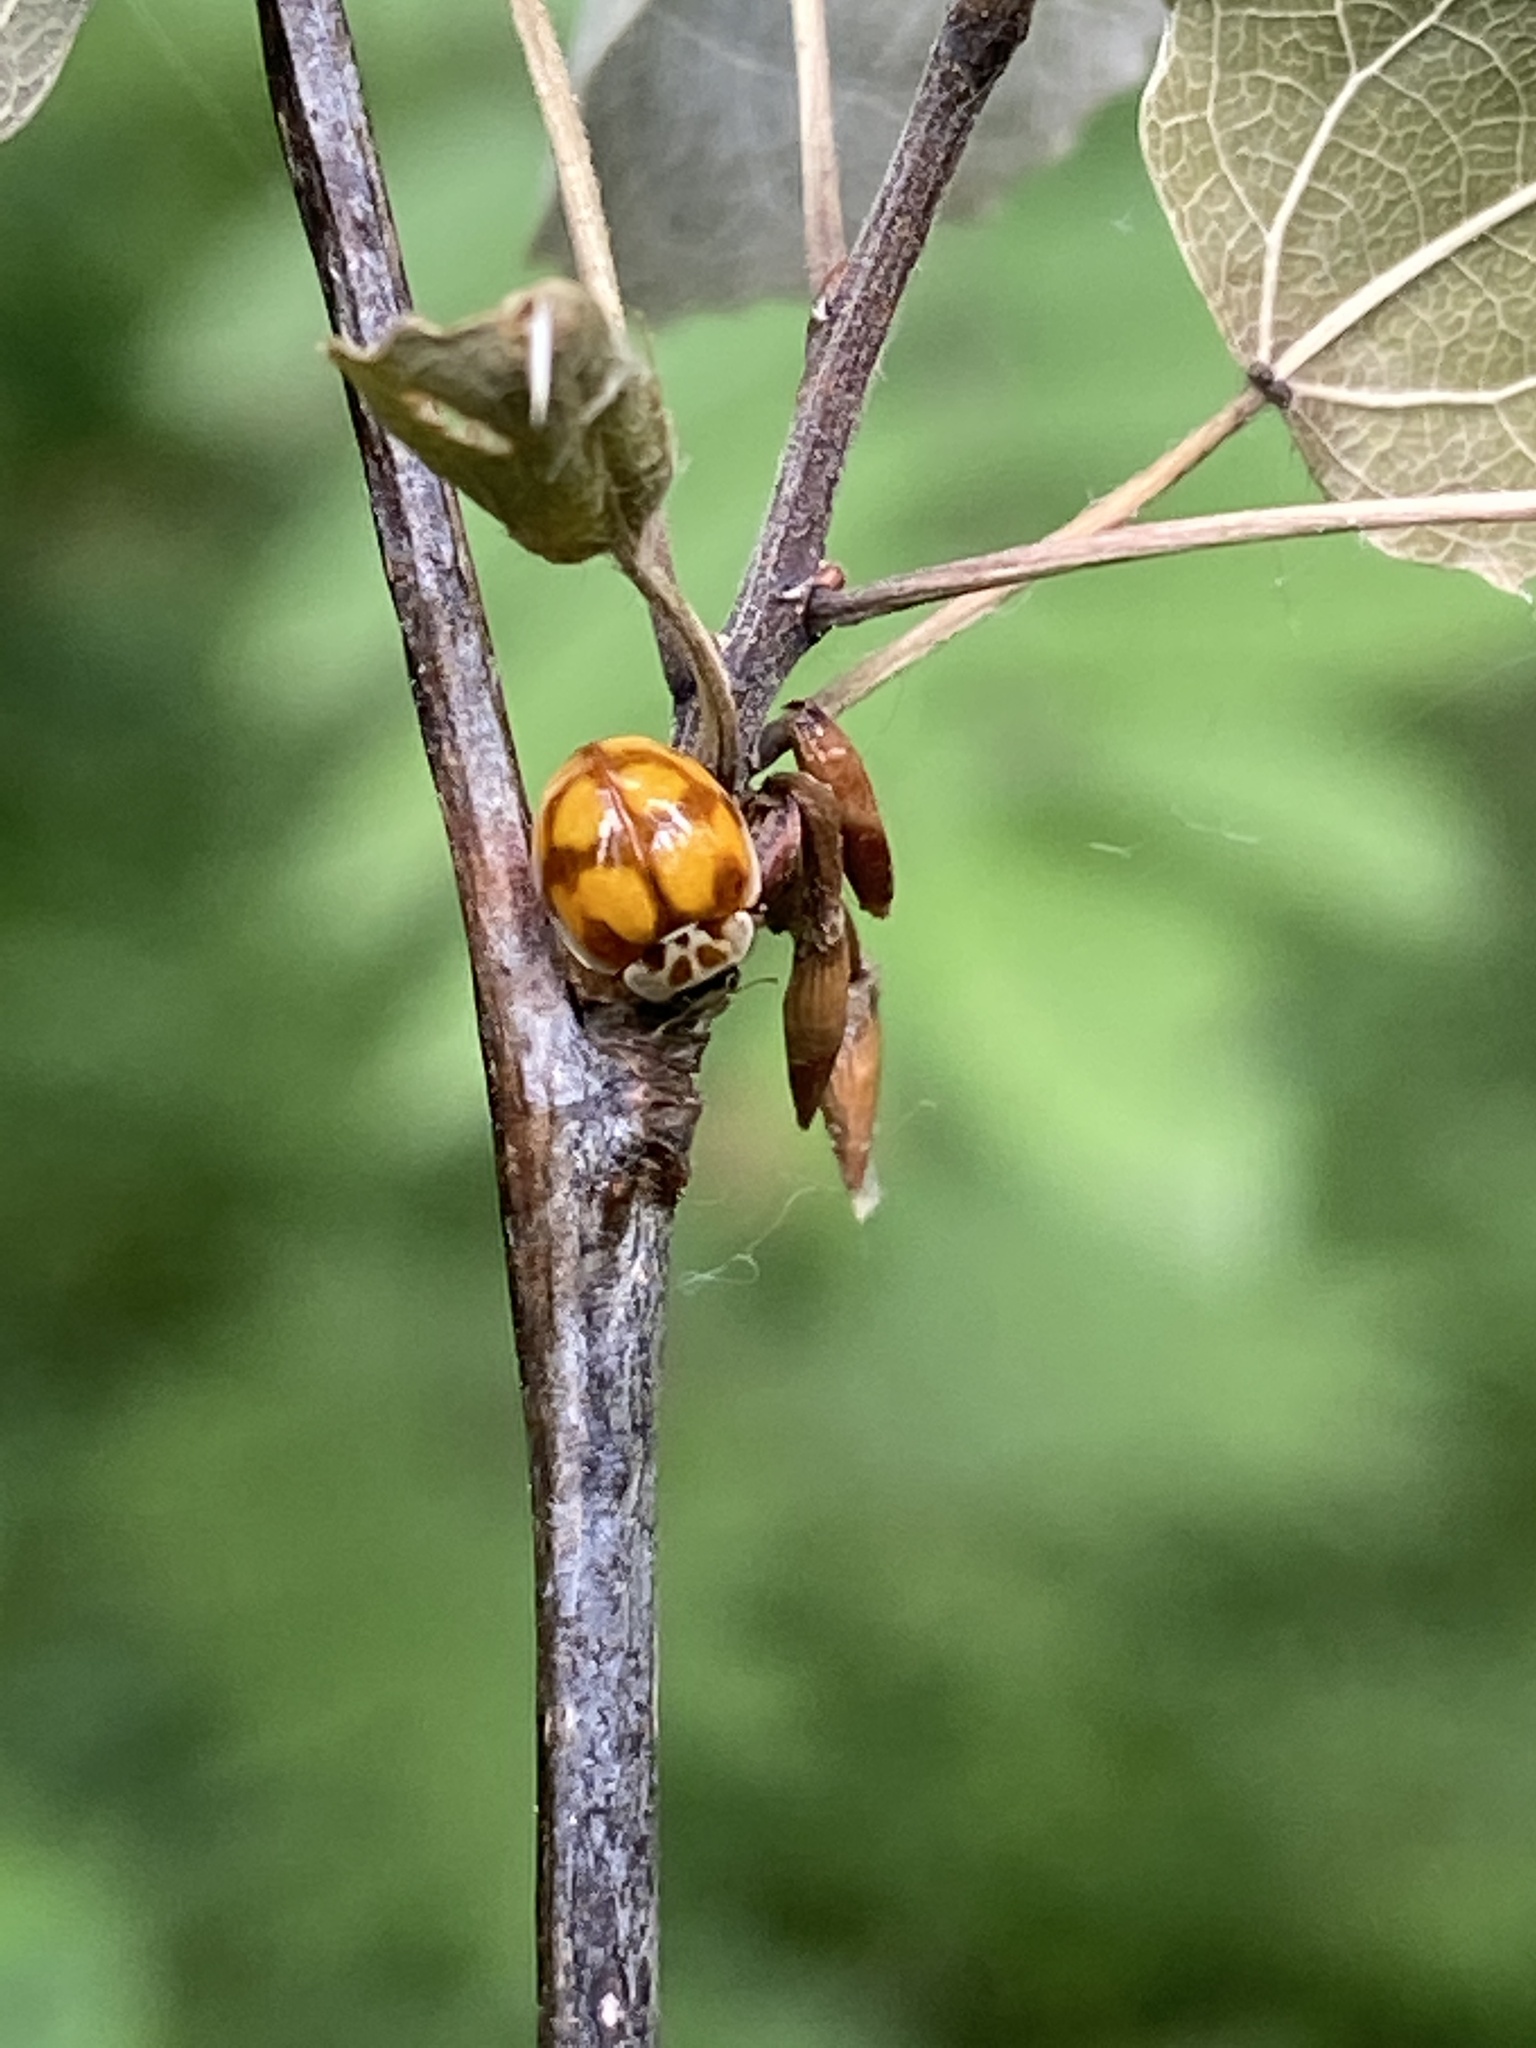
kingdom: Animalia
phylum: Arthropoda
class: Insecta
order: Coleoptera
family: Coccinellidae
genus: Adalia
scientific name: Adalia decempunctata
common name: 10-spot ladybird
